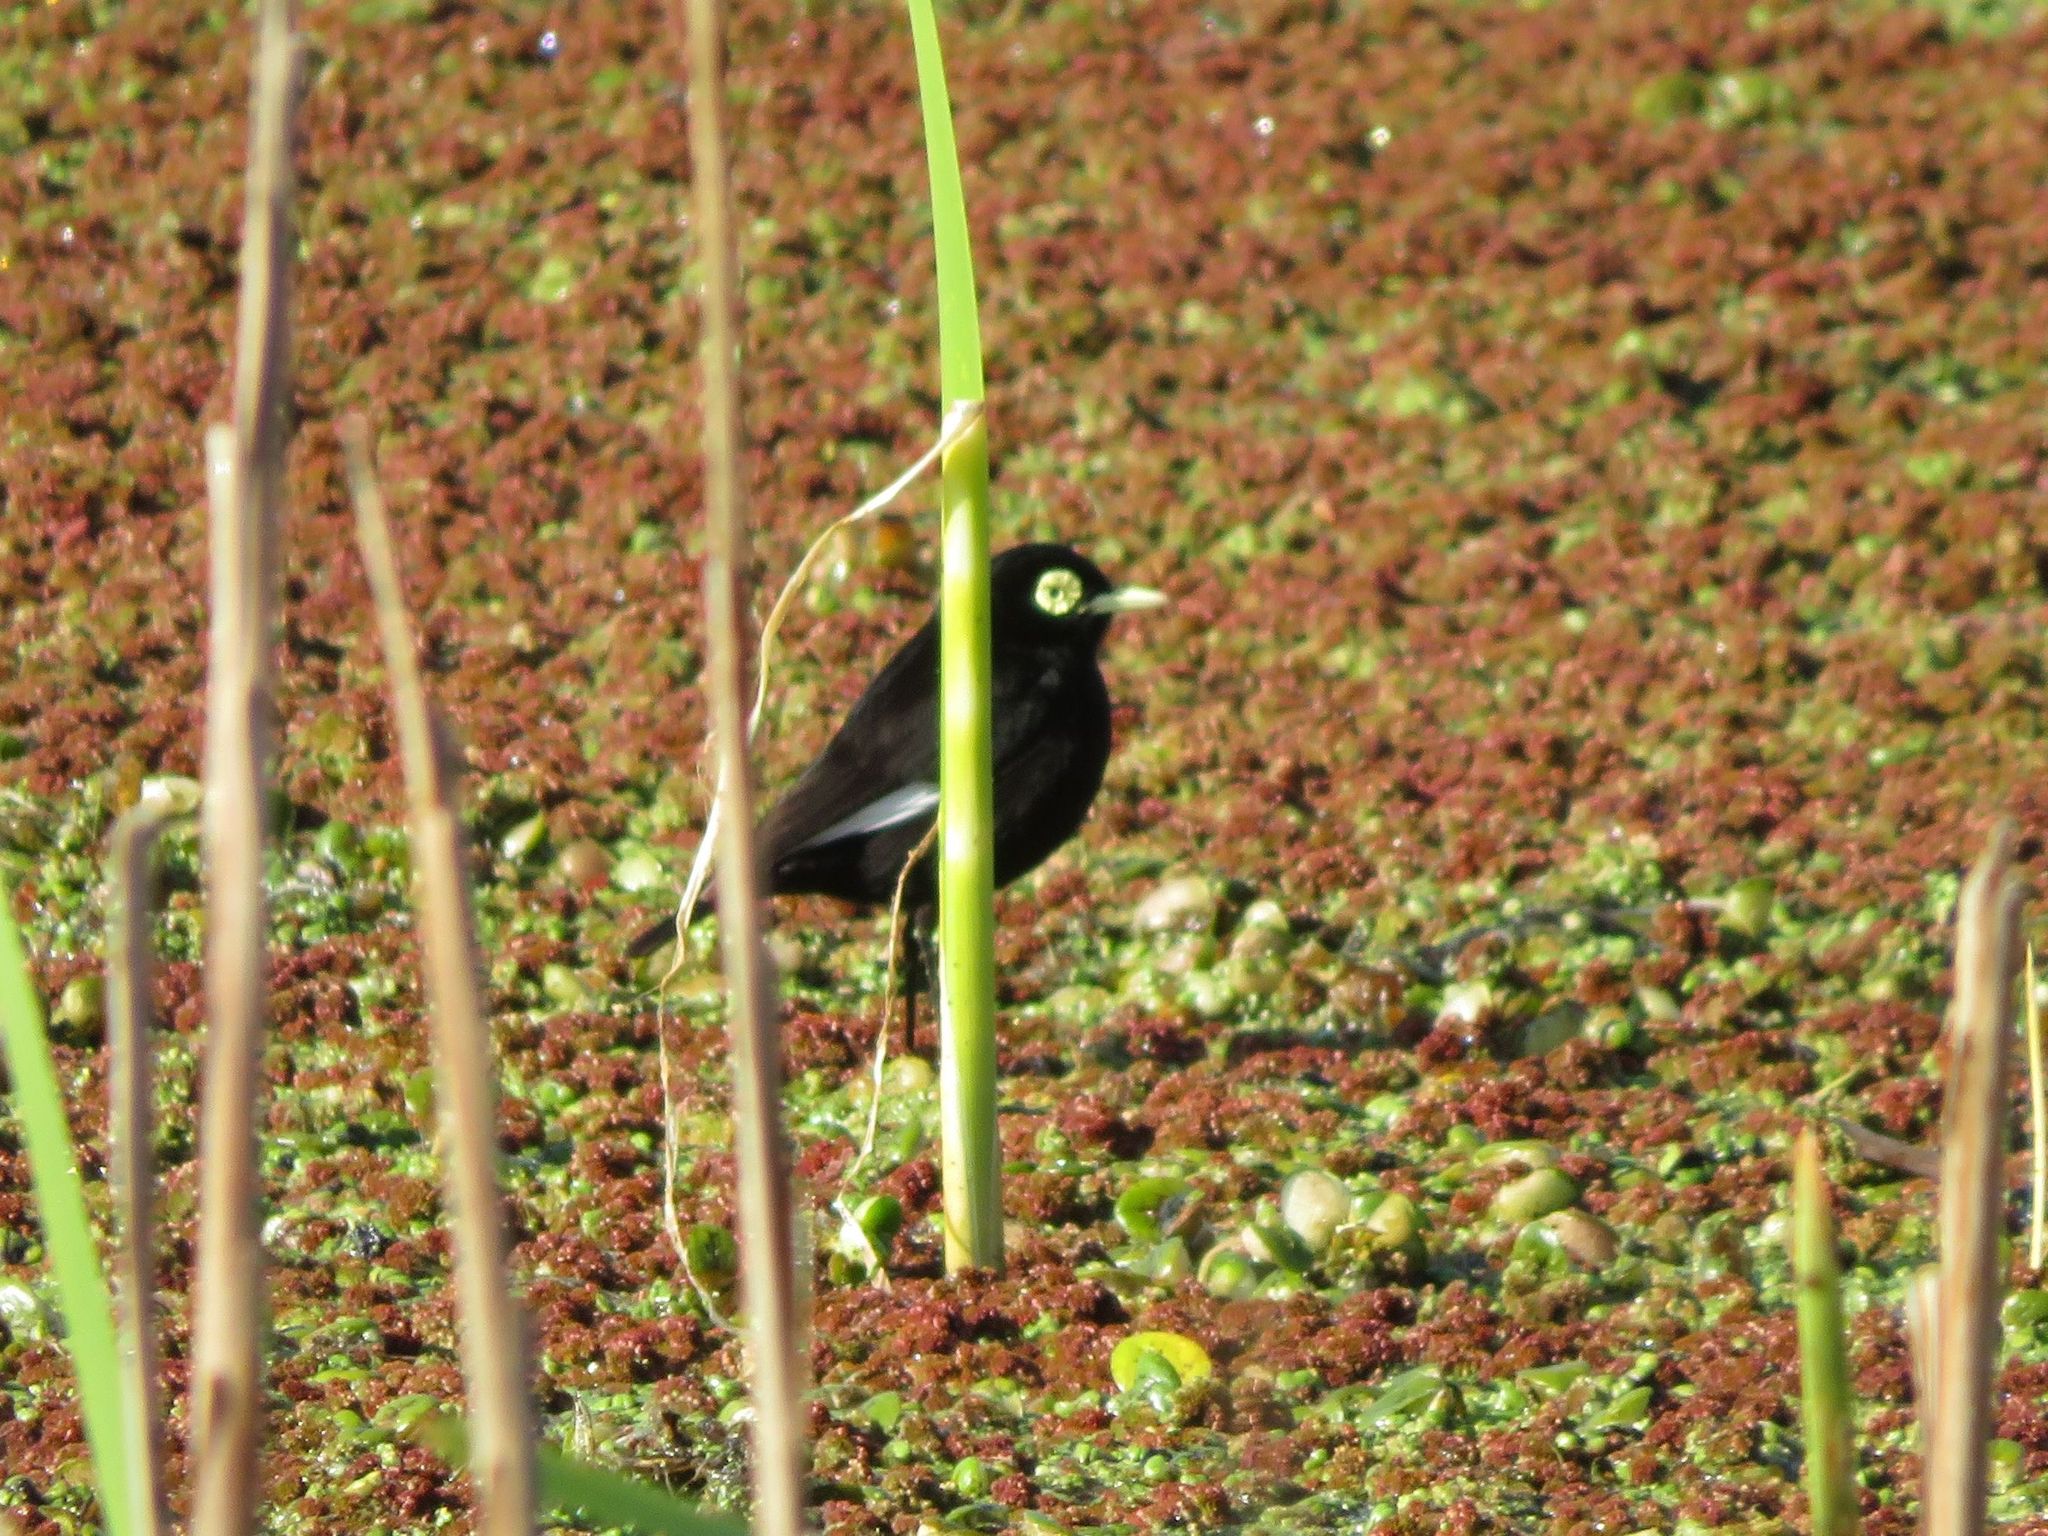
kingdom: Animalia
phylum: Chordata
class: Aves
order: Passeriformes
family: Tyrannidae
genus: Hymenops
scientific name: Hymenops perspicillatus
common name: Spectacled tyrant
